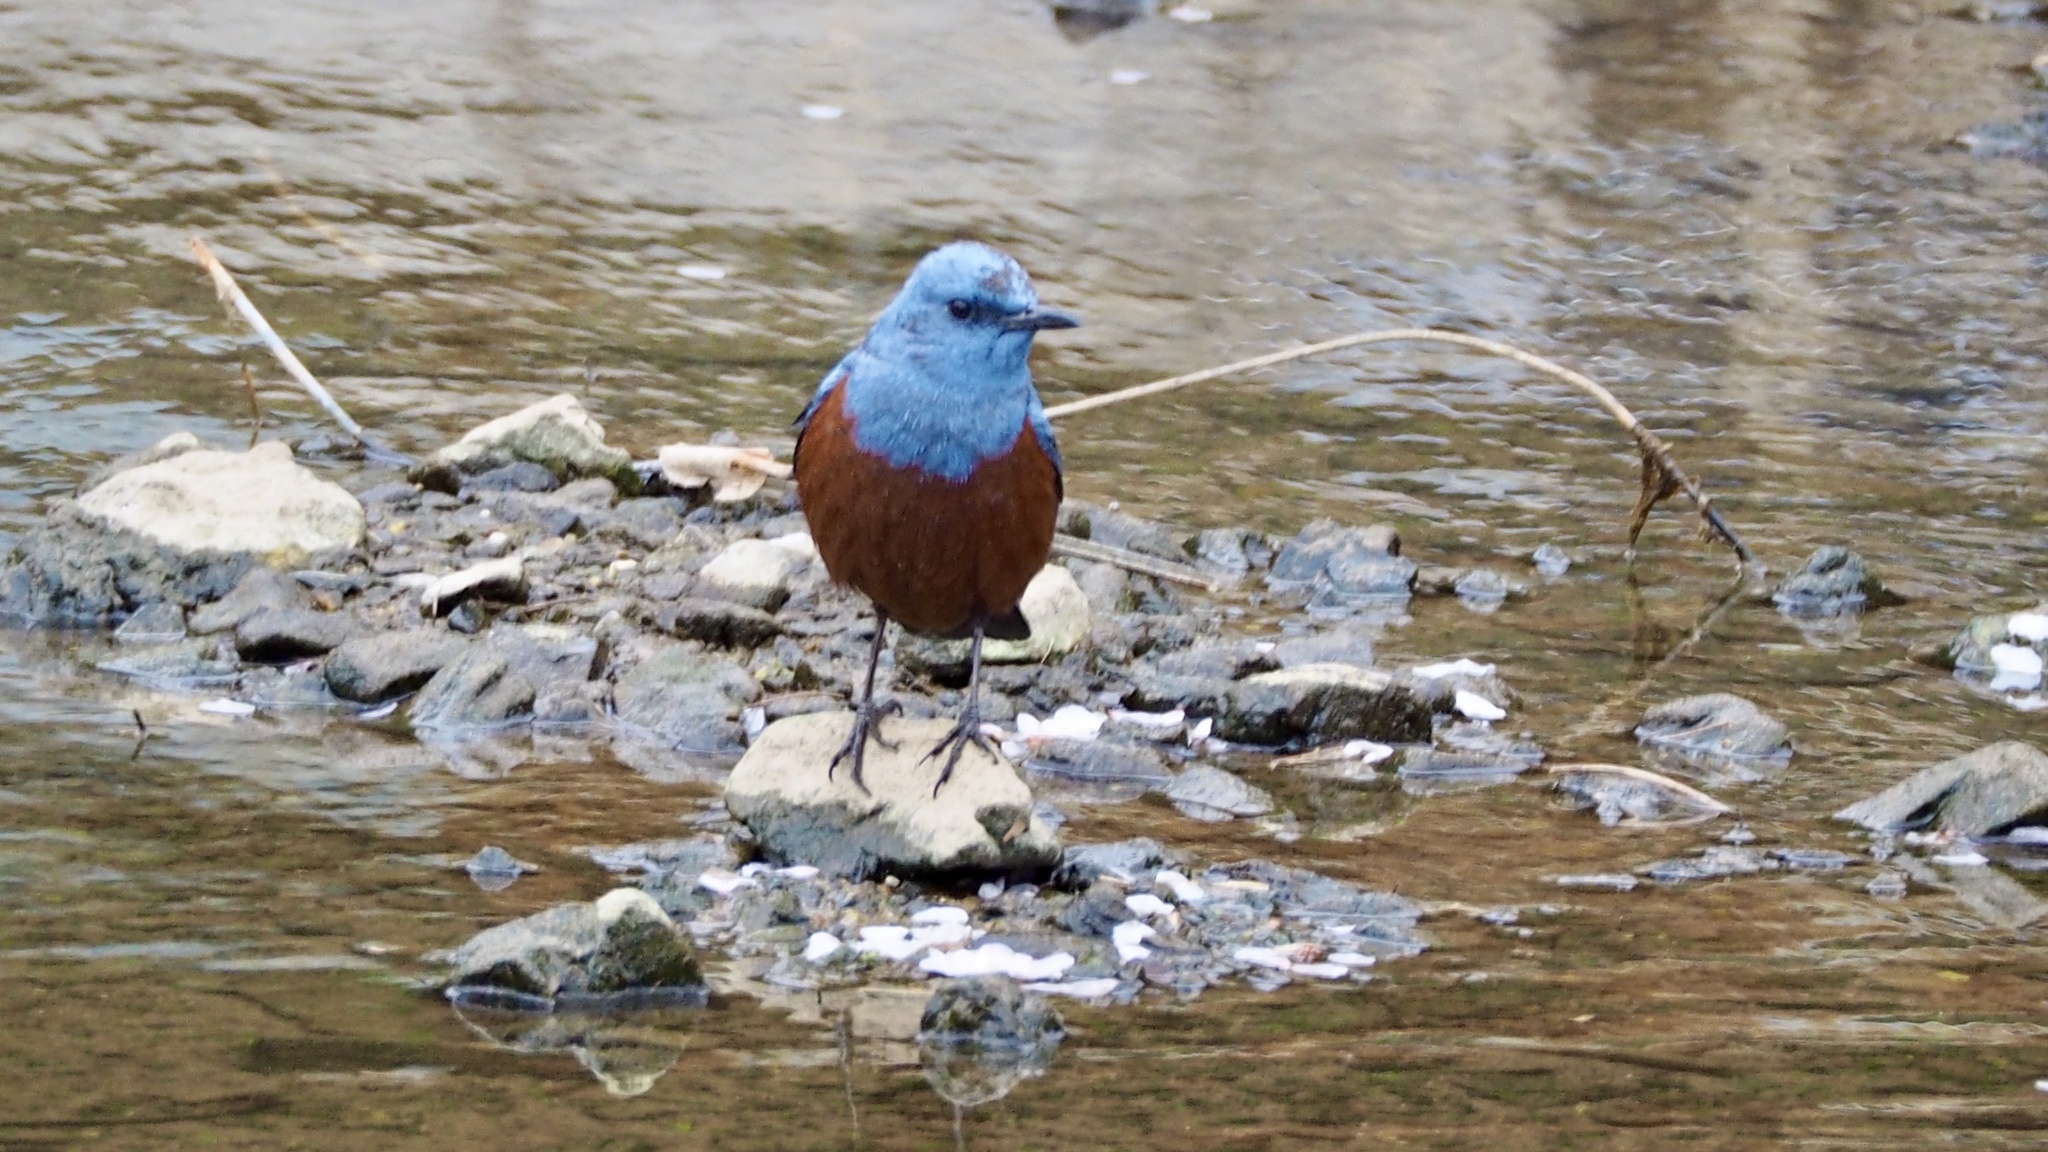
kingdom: Animalia
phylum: Chordata
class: Aves
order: Passeriformes
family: Muscicapidae
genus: Monticola
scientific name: Monticola solitarius
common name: Blue rock thrush
